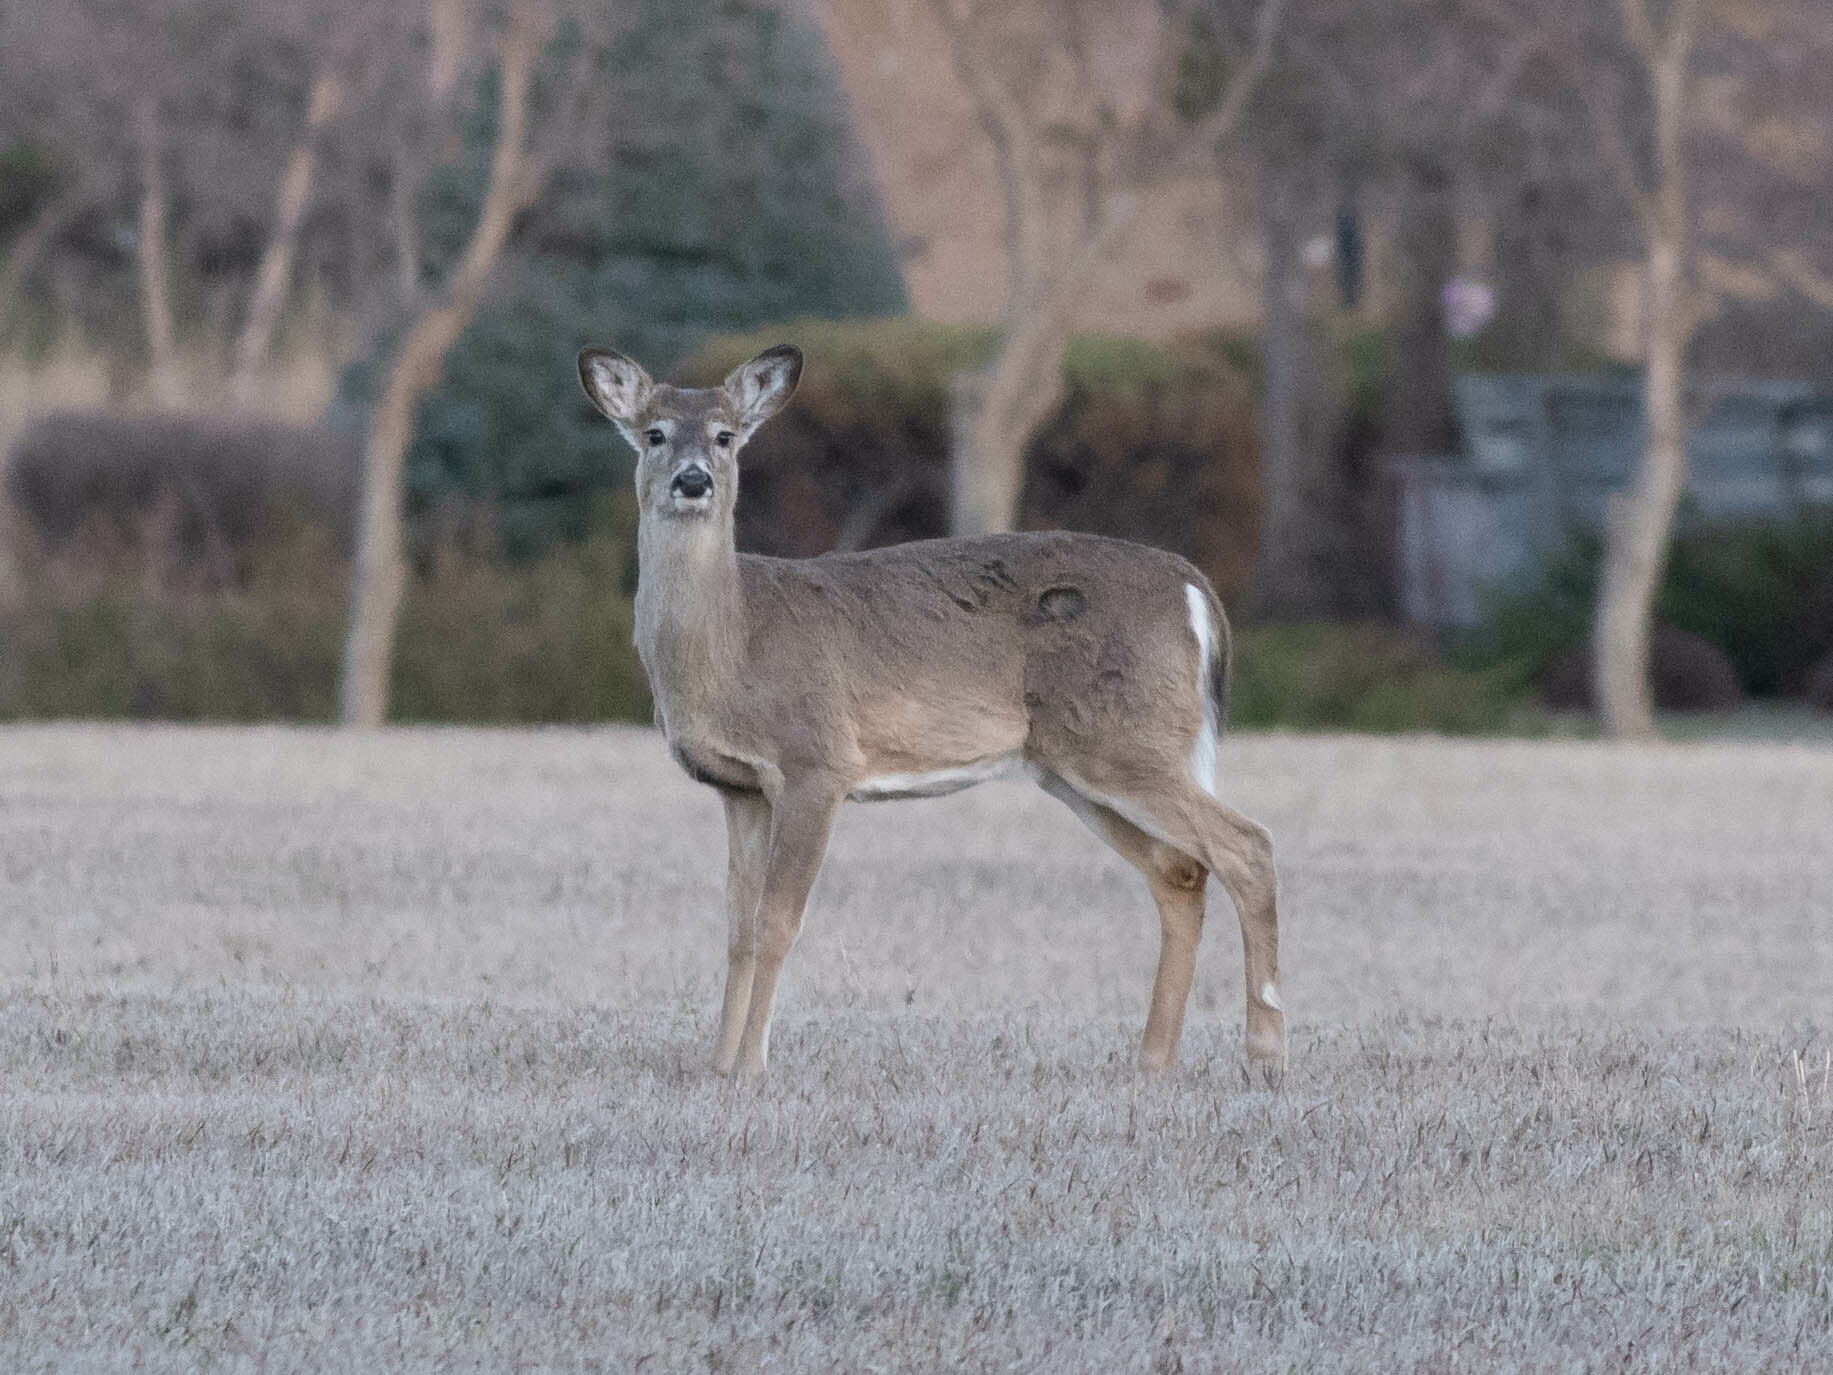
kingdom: Animalia
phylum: Chordata
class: Mammalia
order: Artiodactyla
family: Cervidae
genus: Odocoileus
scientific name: Odocoileus virginianus
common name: White-tailed deer
